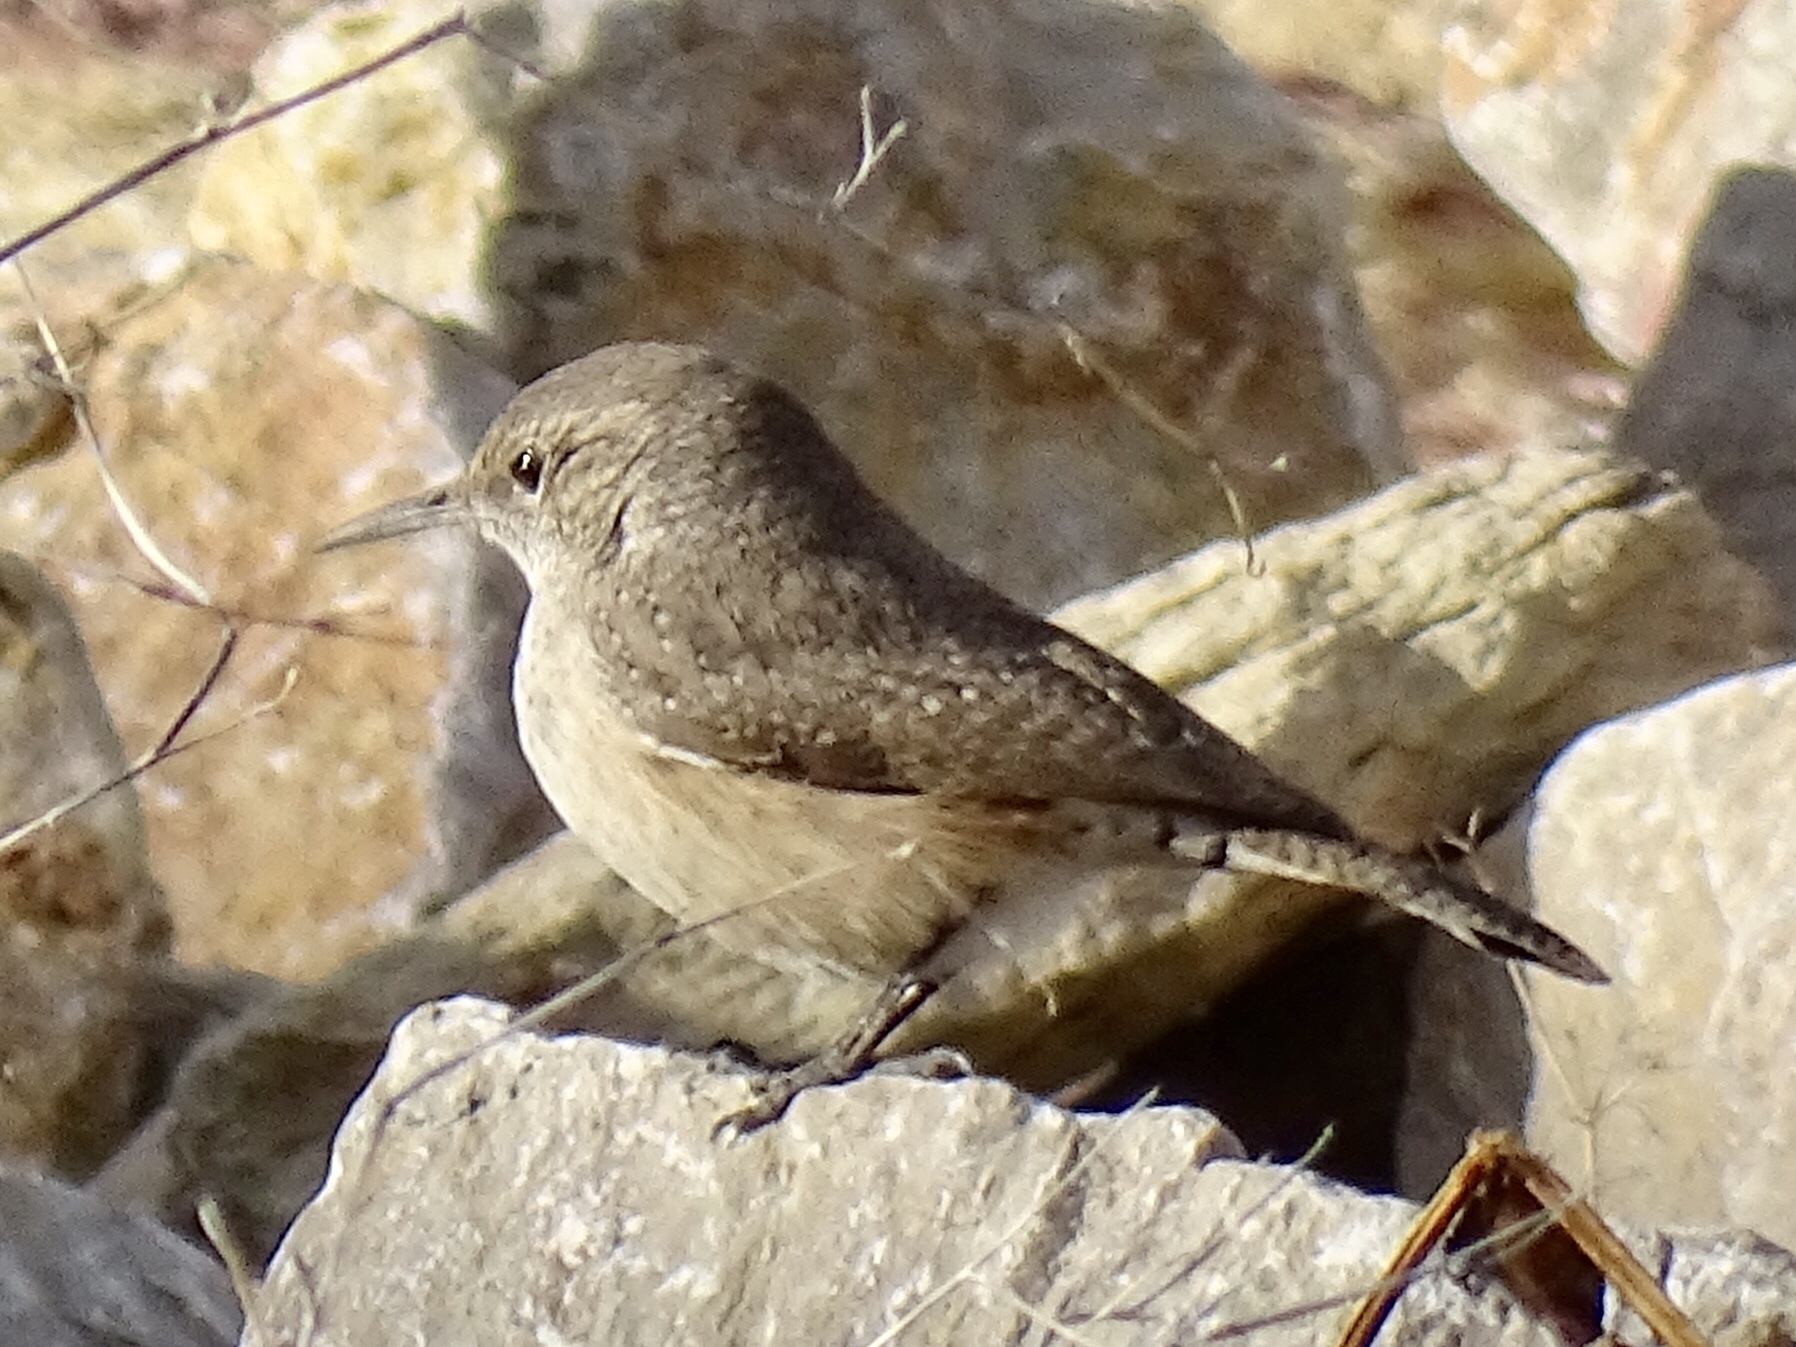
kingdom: Animalia
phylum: Chordata
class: Aves
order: Passeriformes
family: Troglodytidae
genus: Salpinctes
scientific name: Salpinctes obsoletus
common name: Rock wren
